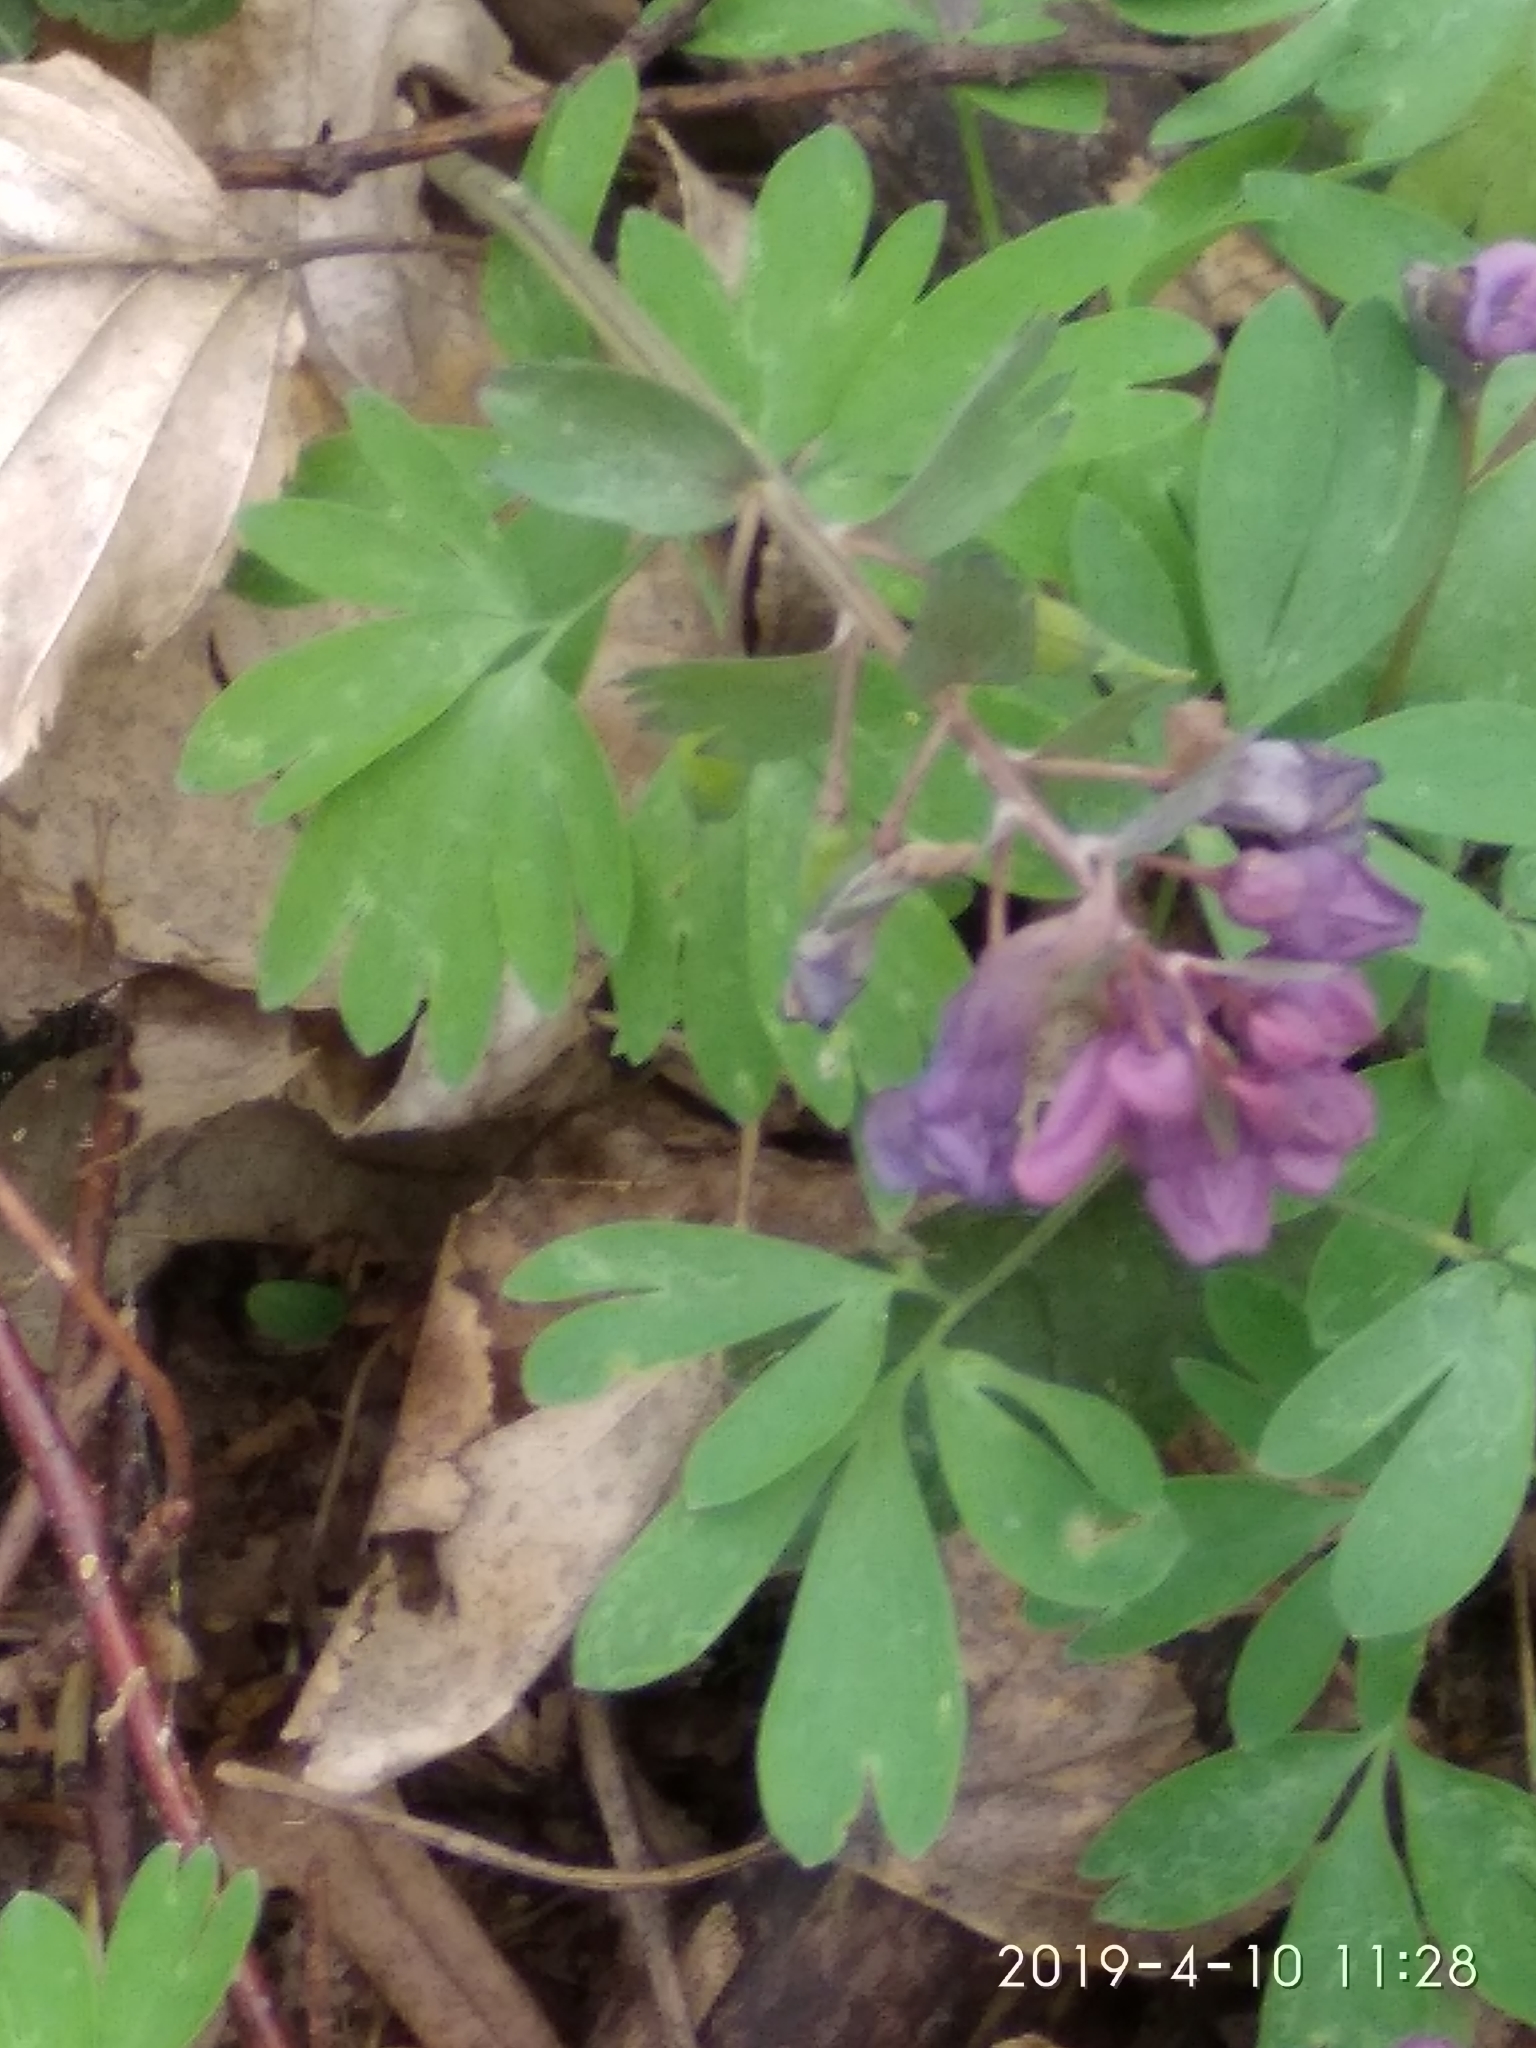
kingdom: Plantae
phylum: Tracheophyta
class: Magnoliopsida
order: Ranunculales
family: Papaveraceae
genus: Corydalis
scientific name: Corydalis solida
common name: Bird-in-a-bush
